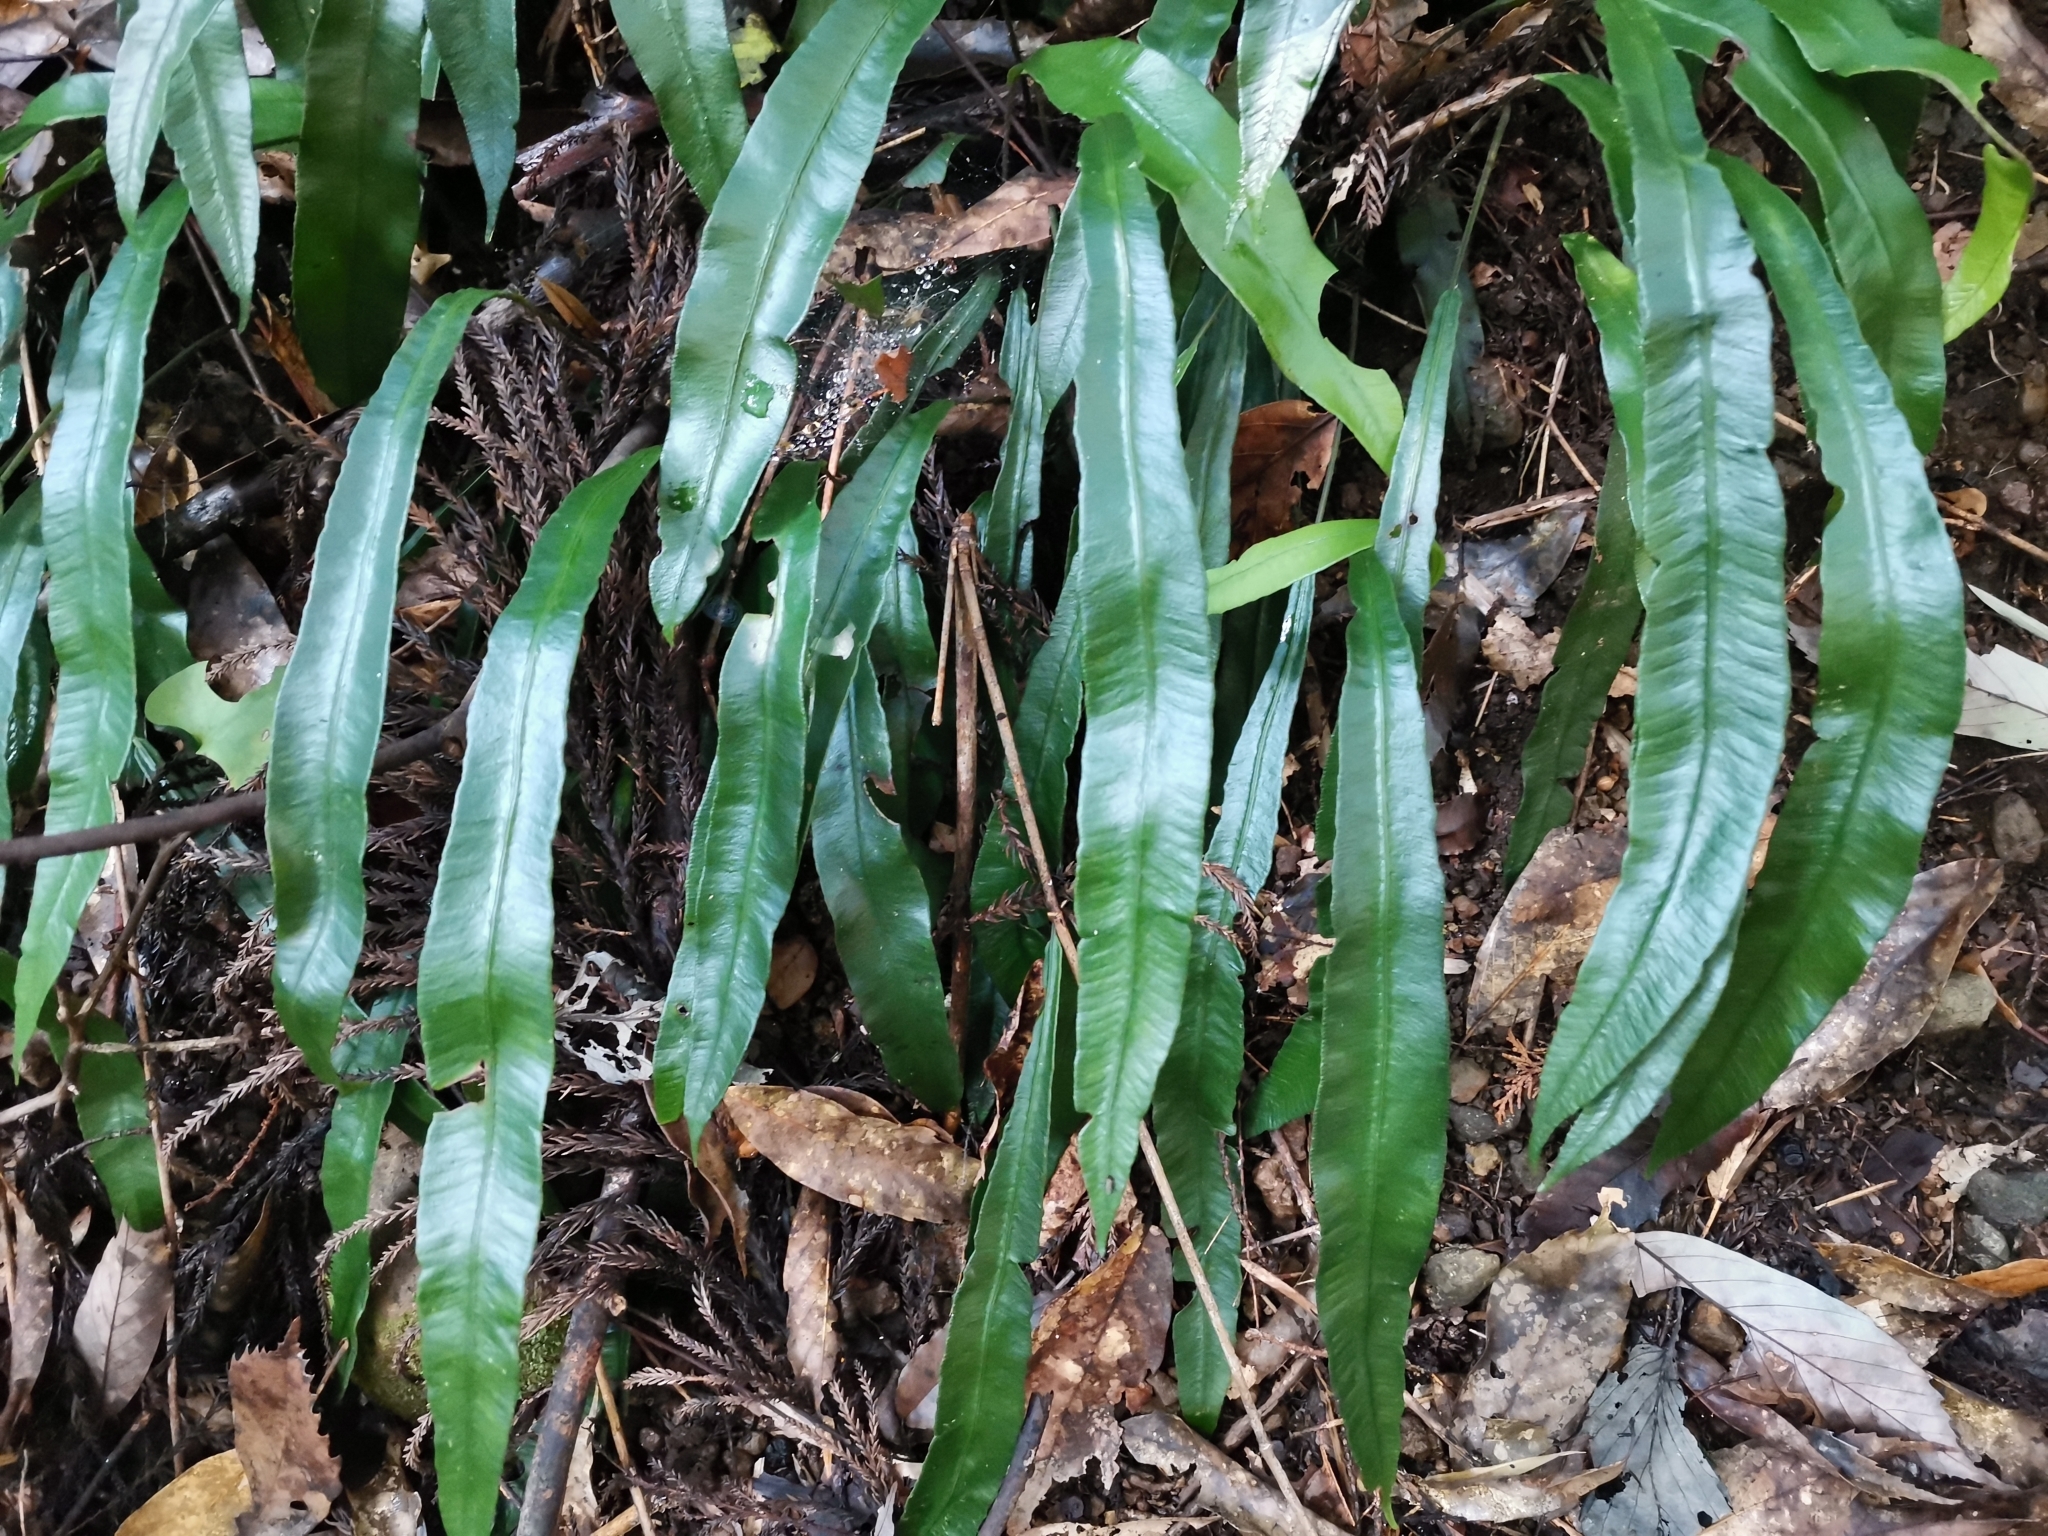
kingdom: Plantae
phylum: Tracheophyta
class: Polypodiopsida
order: Polypodiales
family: Athyriaceae
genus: Deparia
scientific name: Deparia lancea
